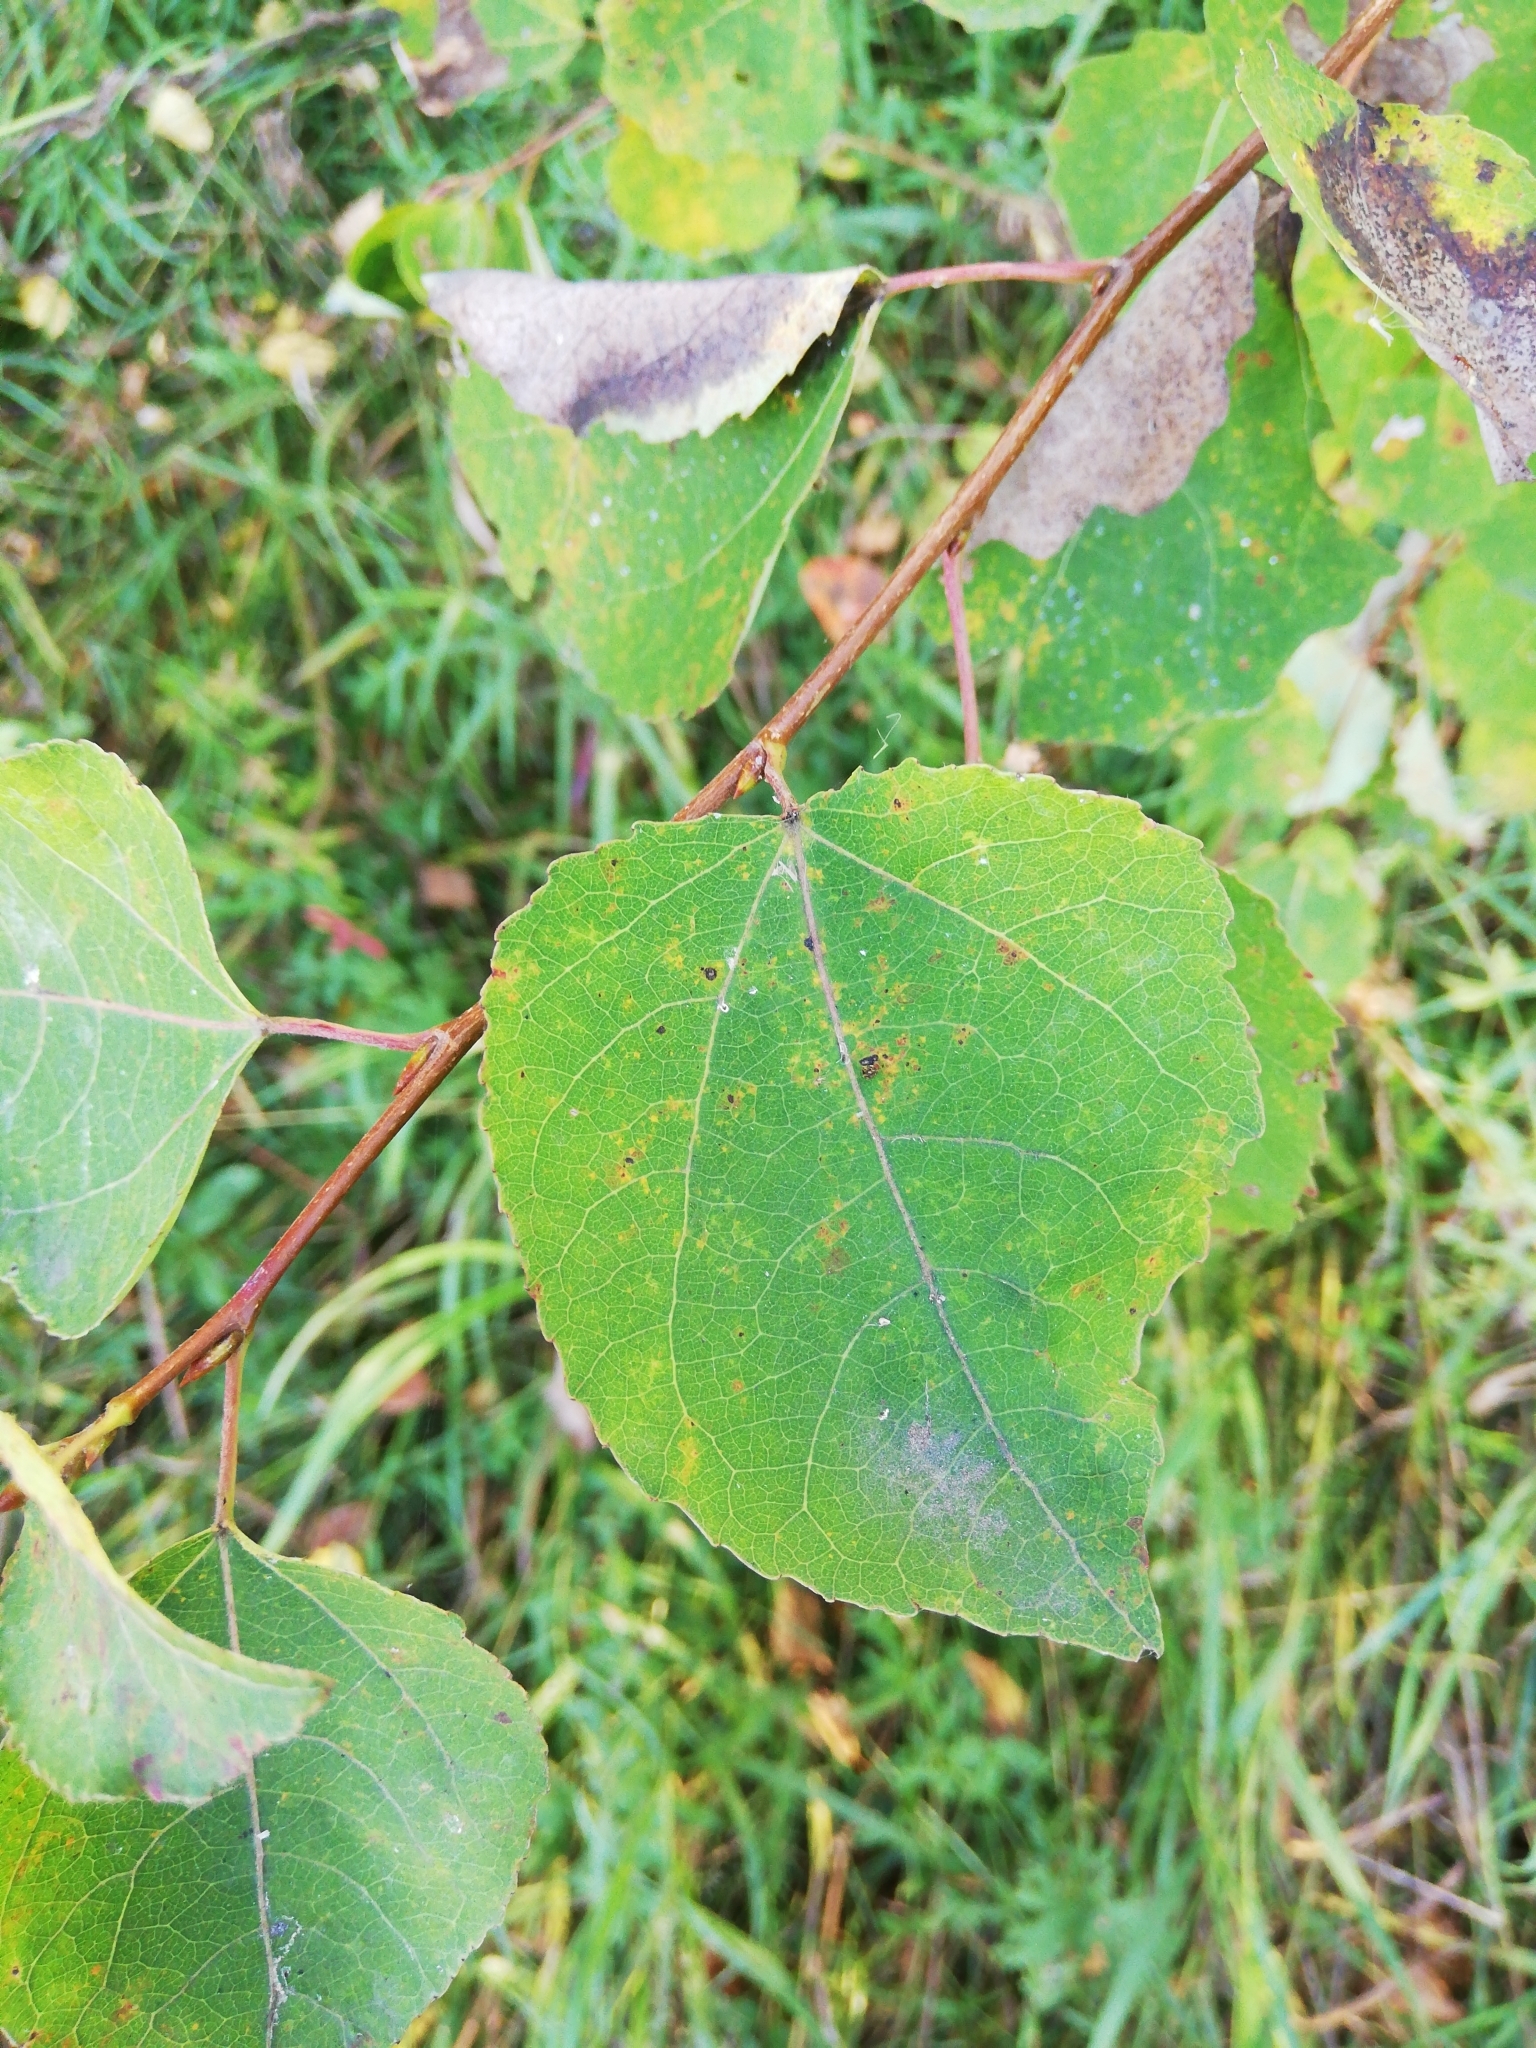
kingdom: Plantae
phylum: Tracheophyta
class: Magnoliopsida
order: Malpighiales
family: Salicaceae
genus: Populus
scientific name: Populus tremula
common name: European aspen
